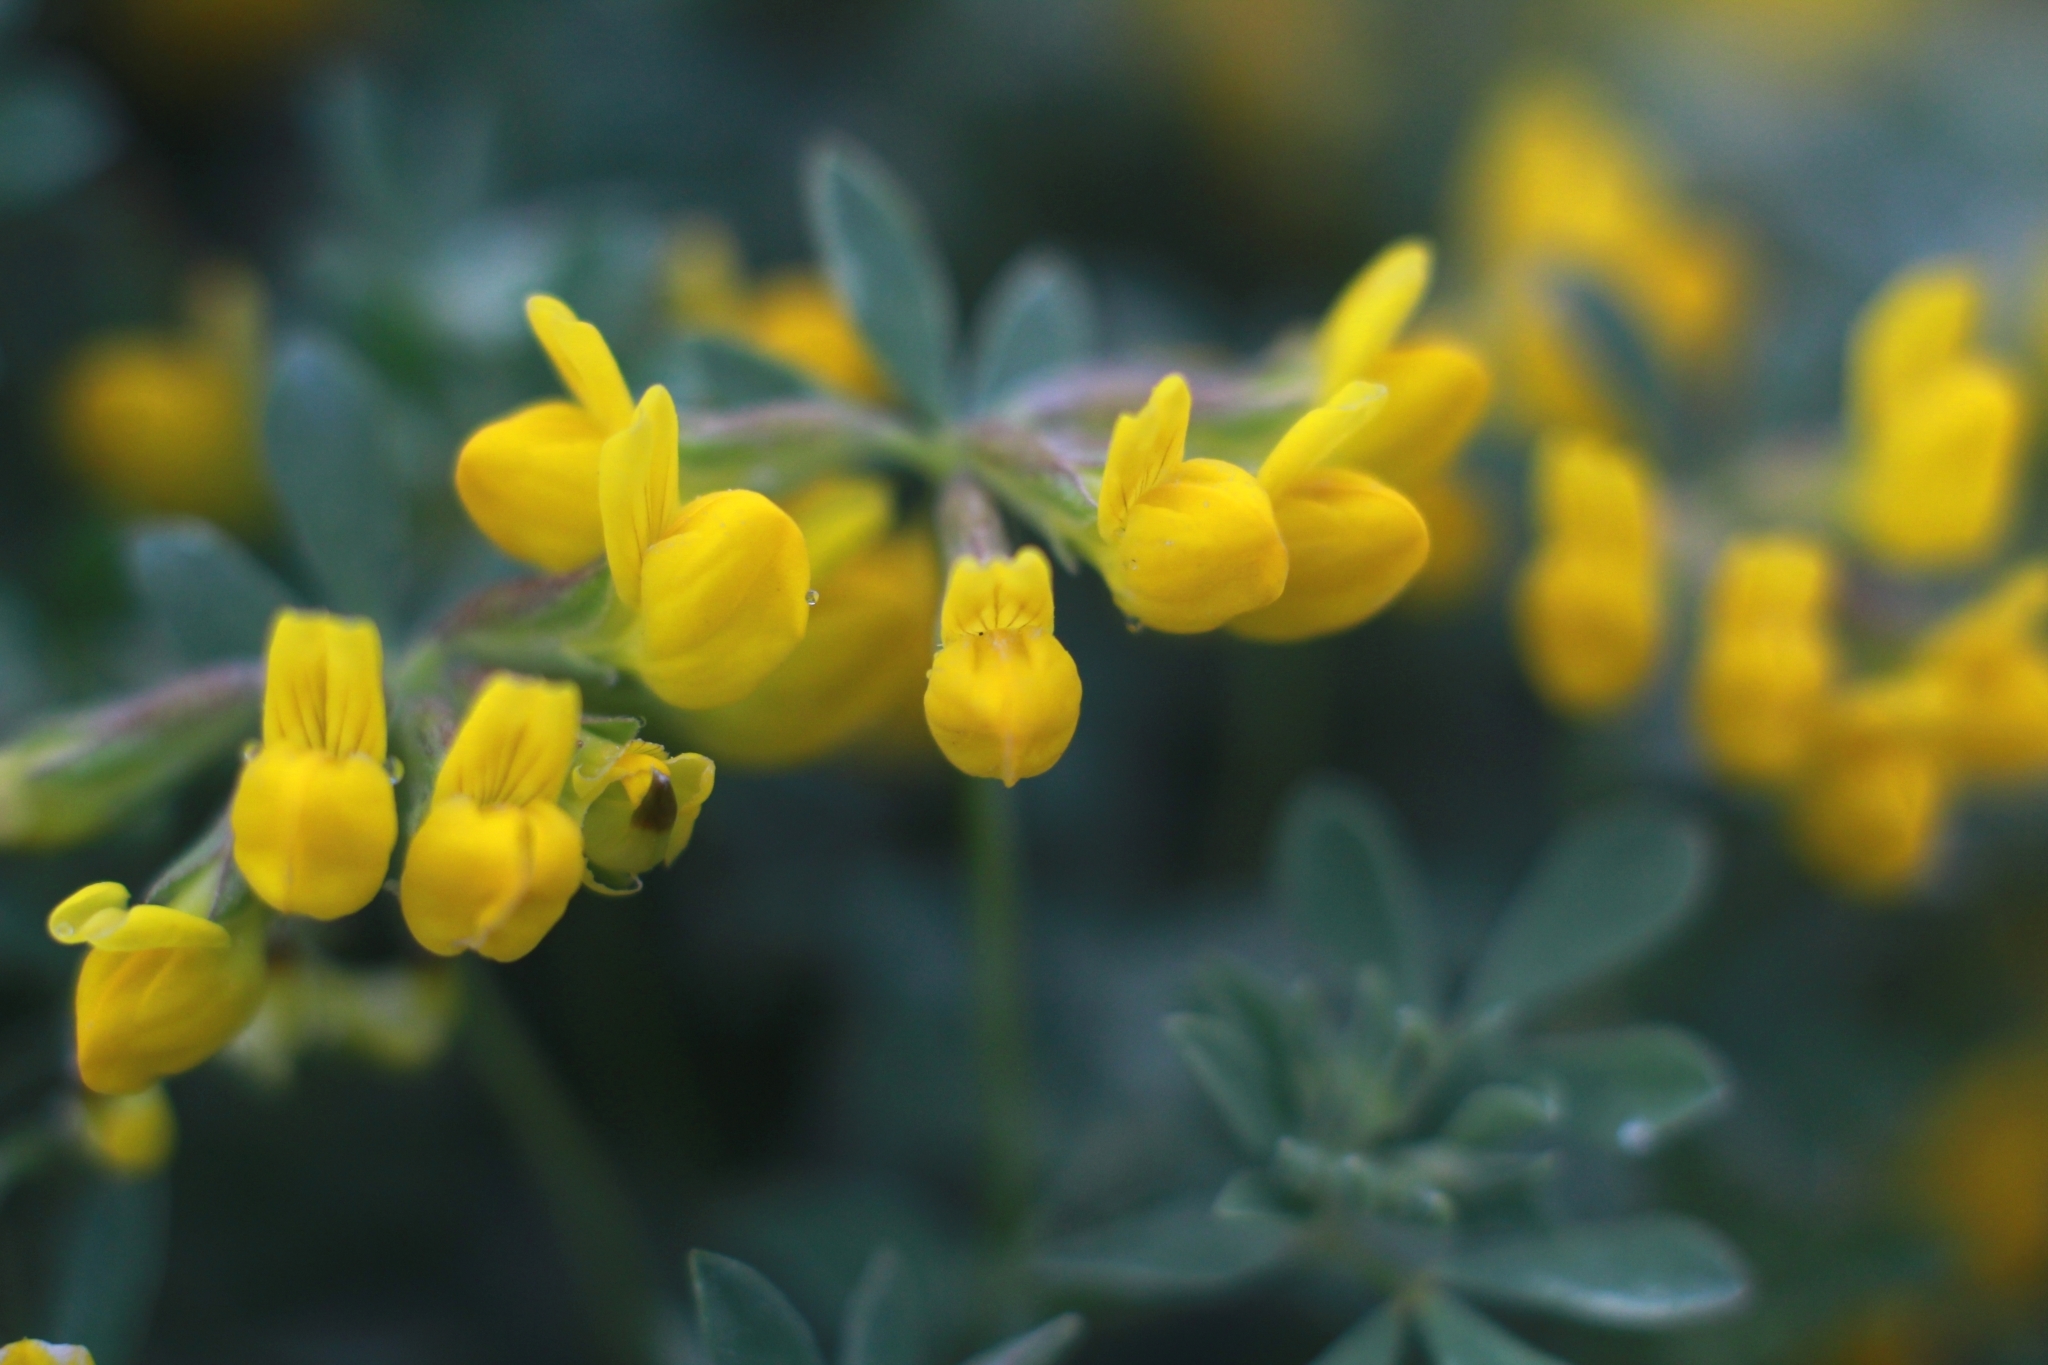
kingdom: Plantae
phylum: Tracheophyta
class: Magnoliopsida
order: Fabales
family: Fabaceae
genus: Lotus
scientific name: Lotus cytisoides
